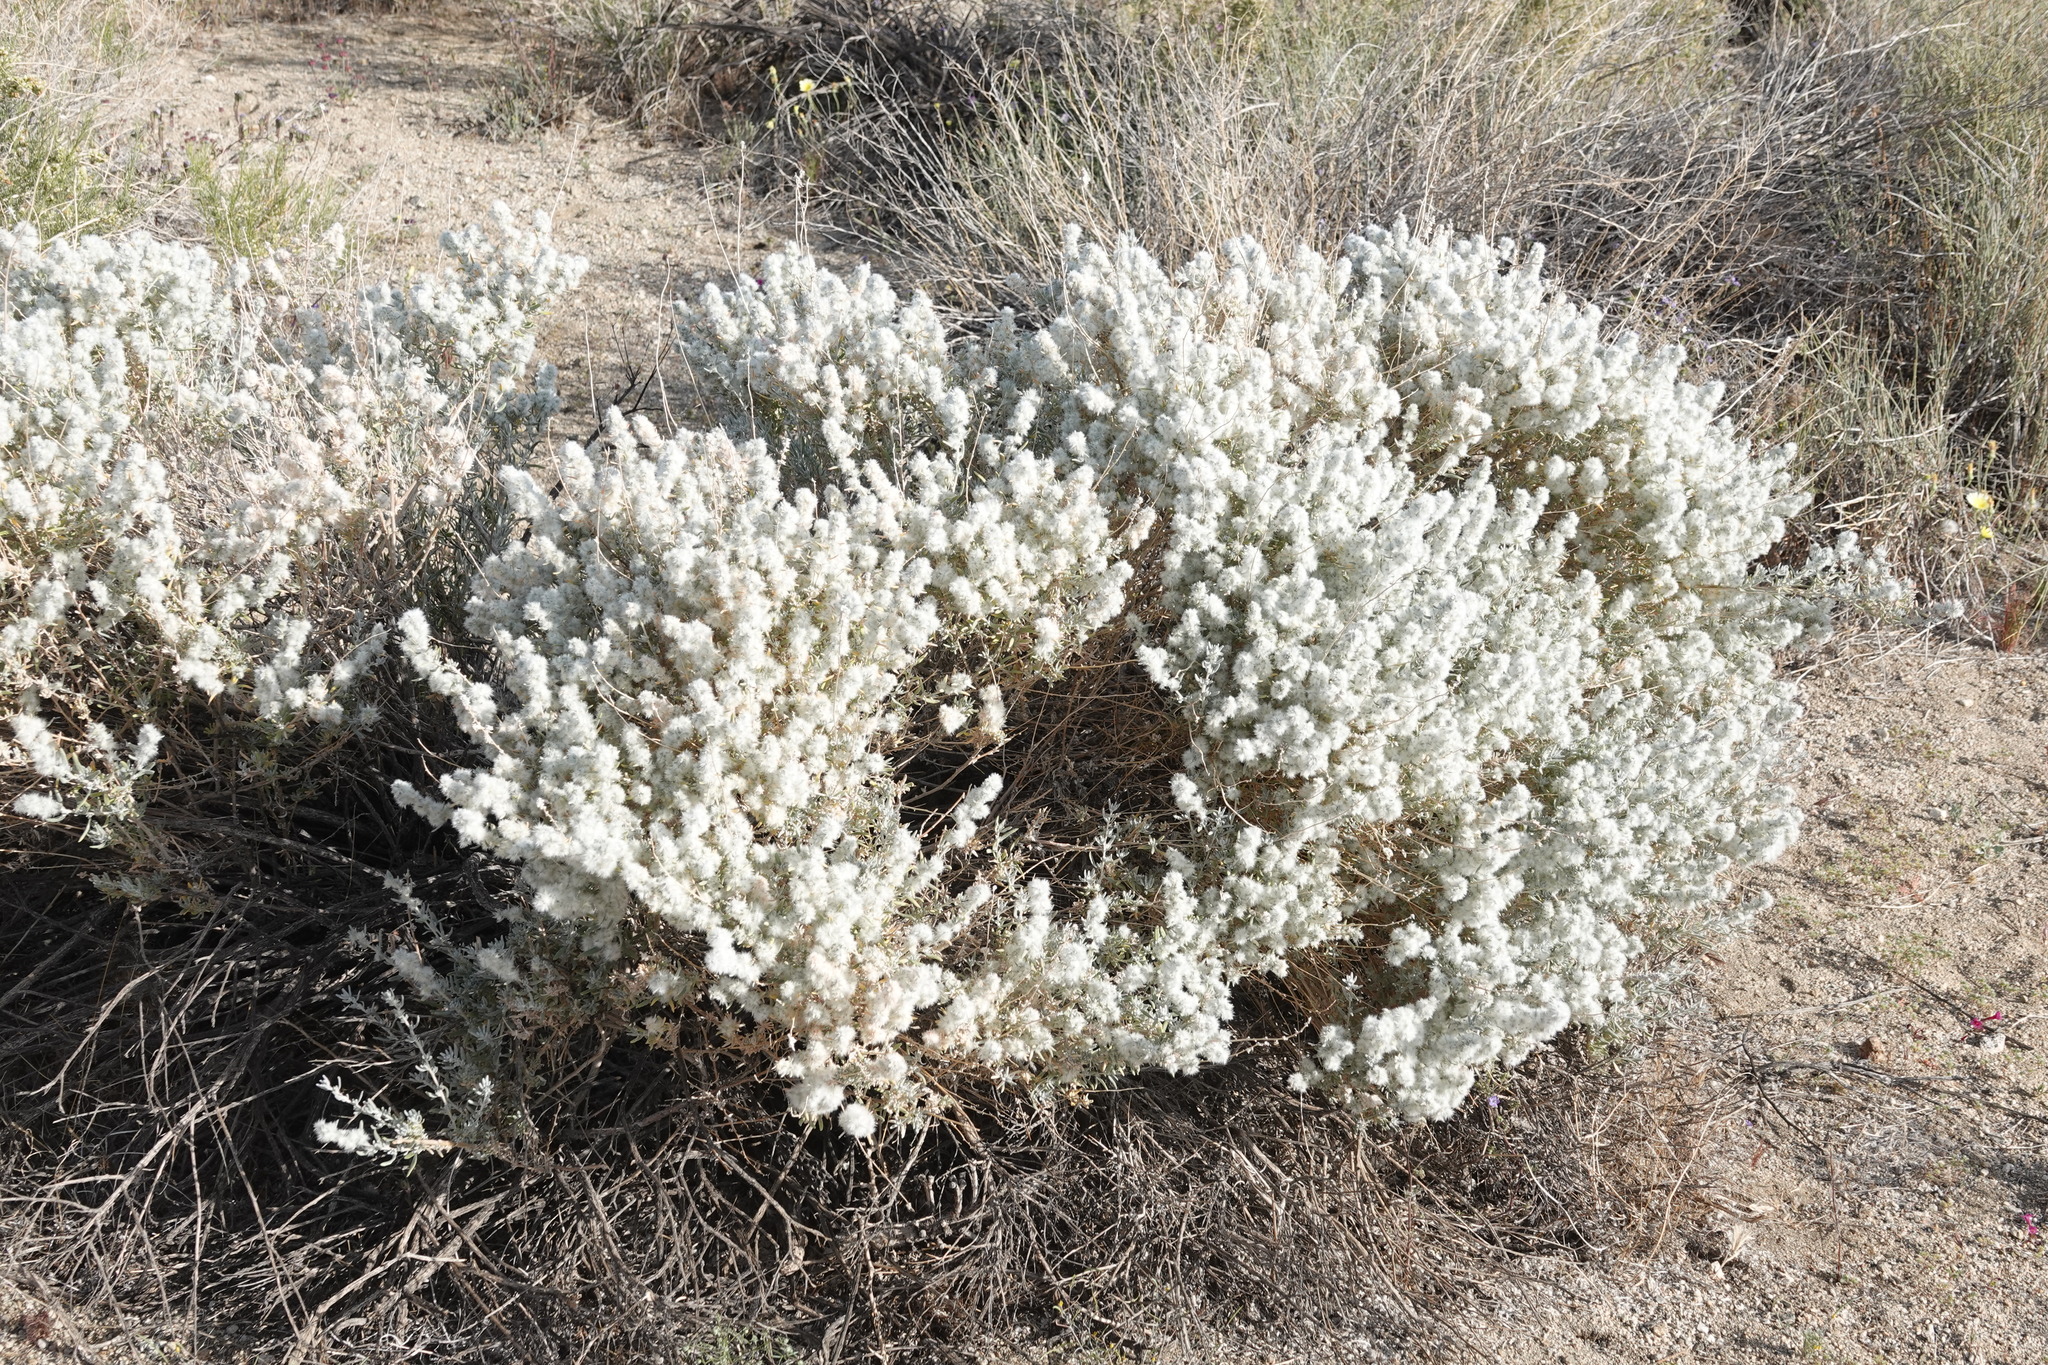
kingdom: Plantae
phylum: Tracheophyta
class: Magnoliopsida
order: Caryophyllales
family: Amaranthaceae
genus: Krascheninnikovia
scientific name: Krascheninnikovia lanata
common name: Winterfat
